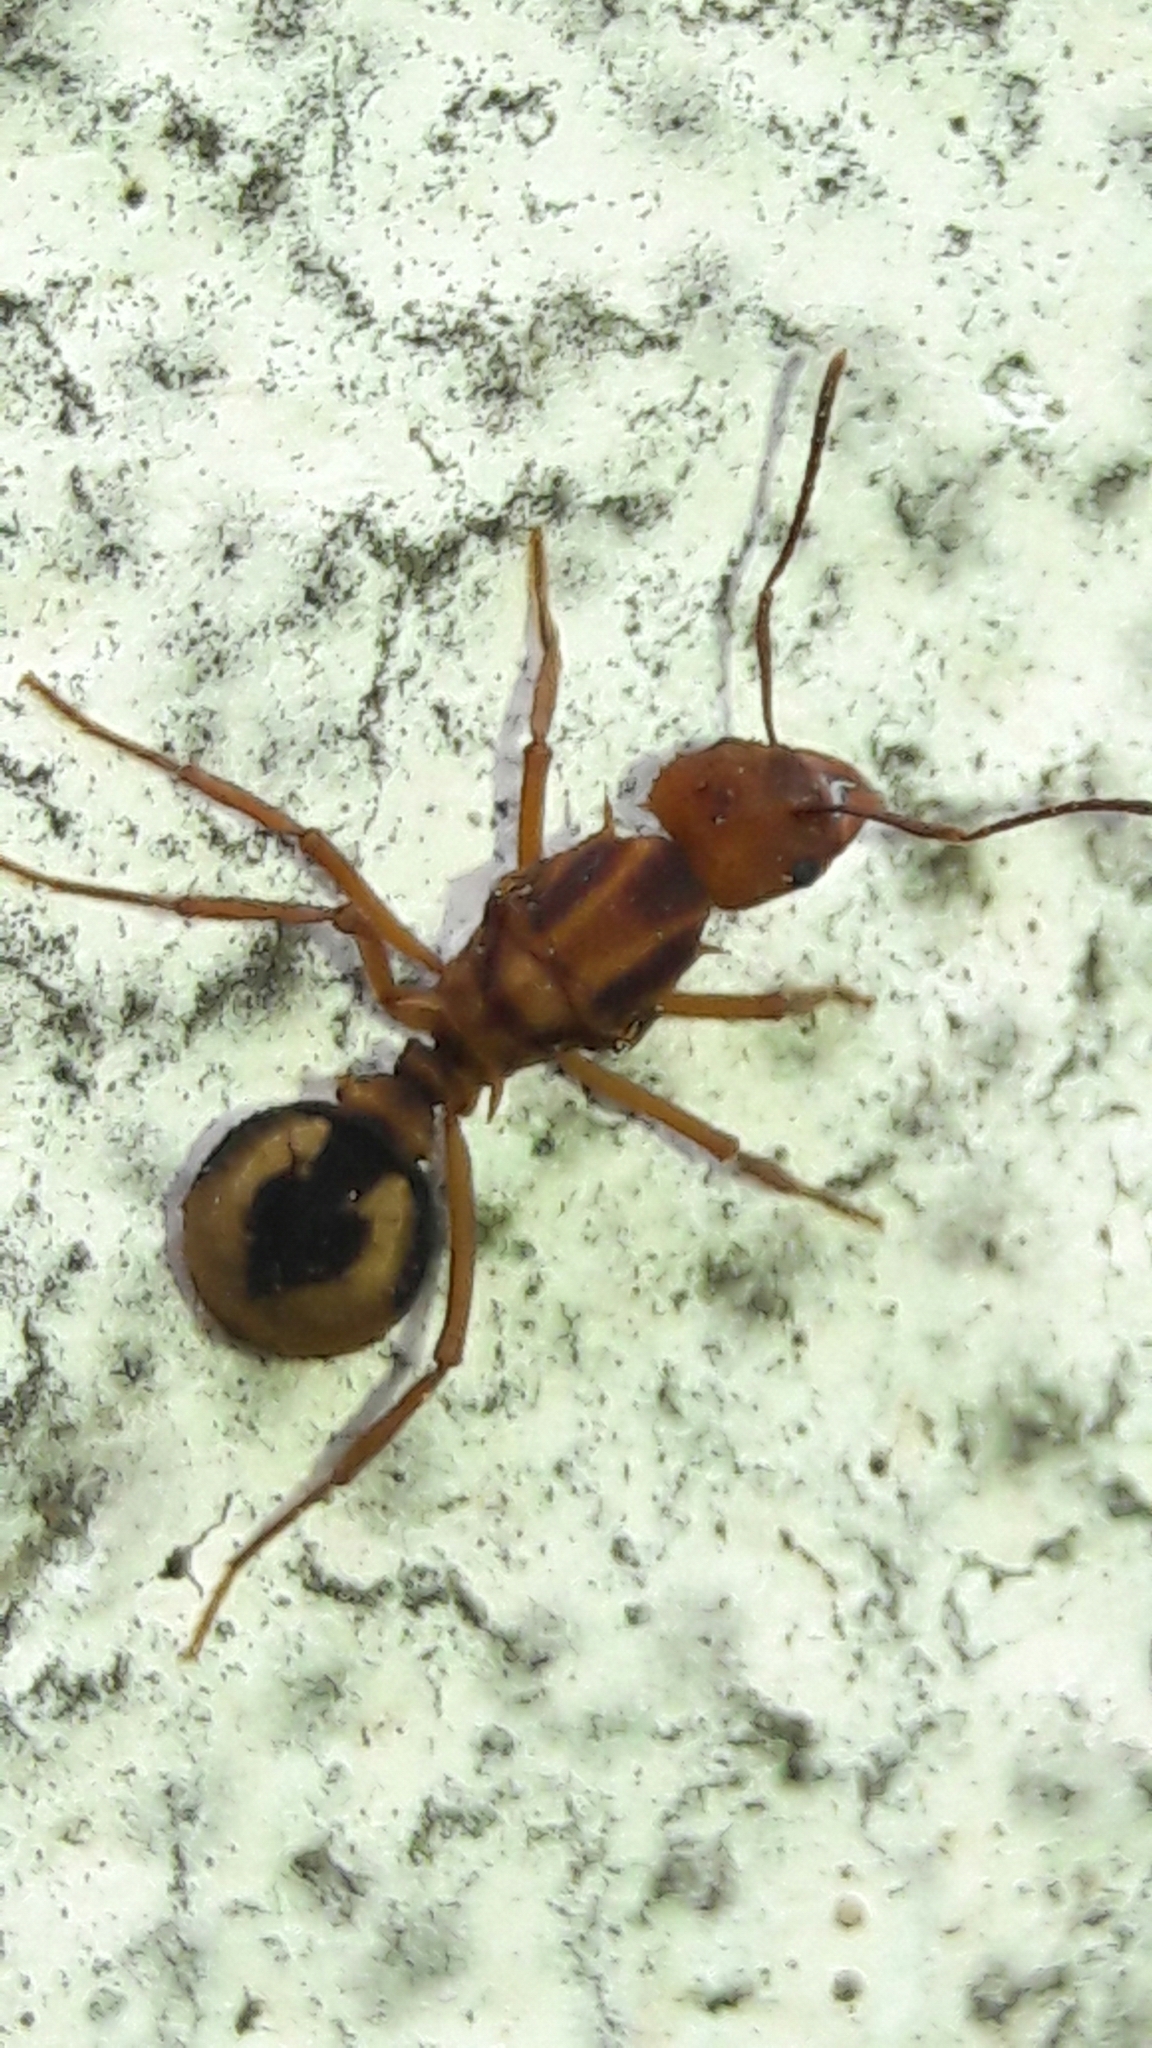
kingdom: Animalia
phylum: Arthropoda
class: Insecta
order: Hymenoptera
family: Formicidae
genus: Acromyrmex
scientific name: Acromyrmex coronatus
